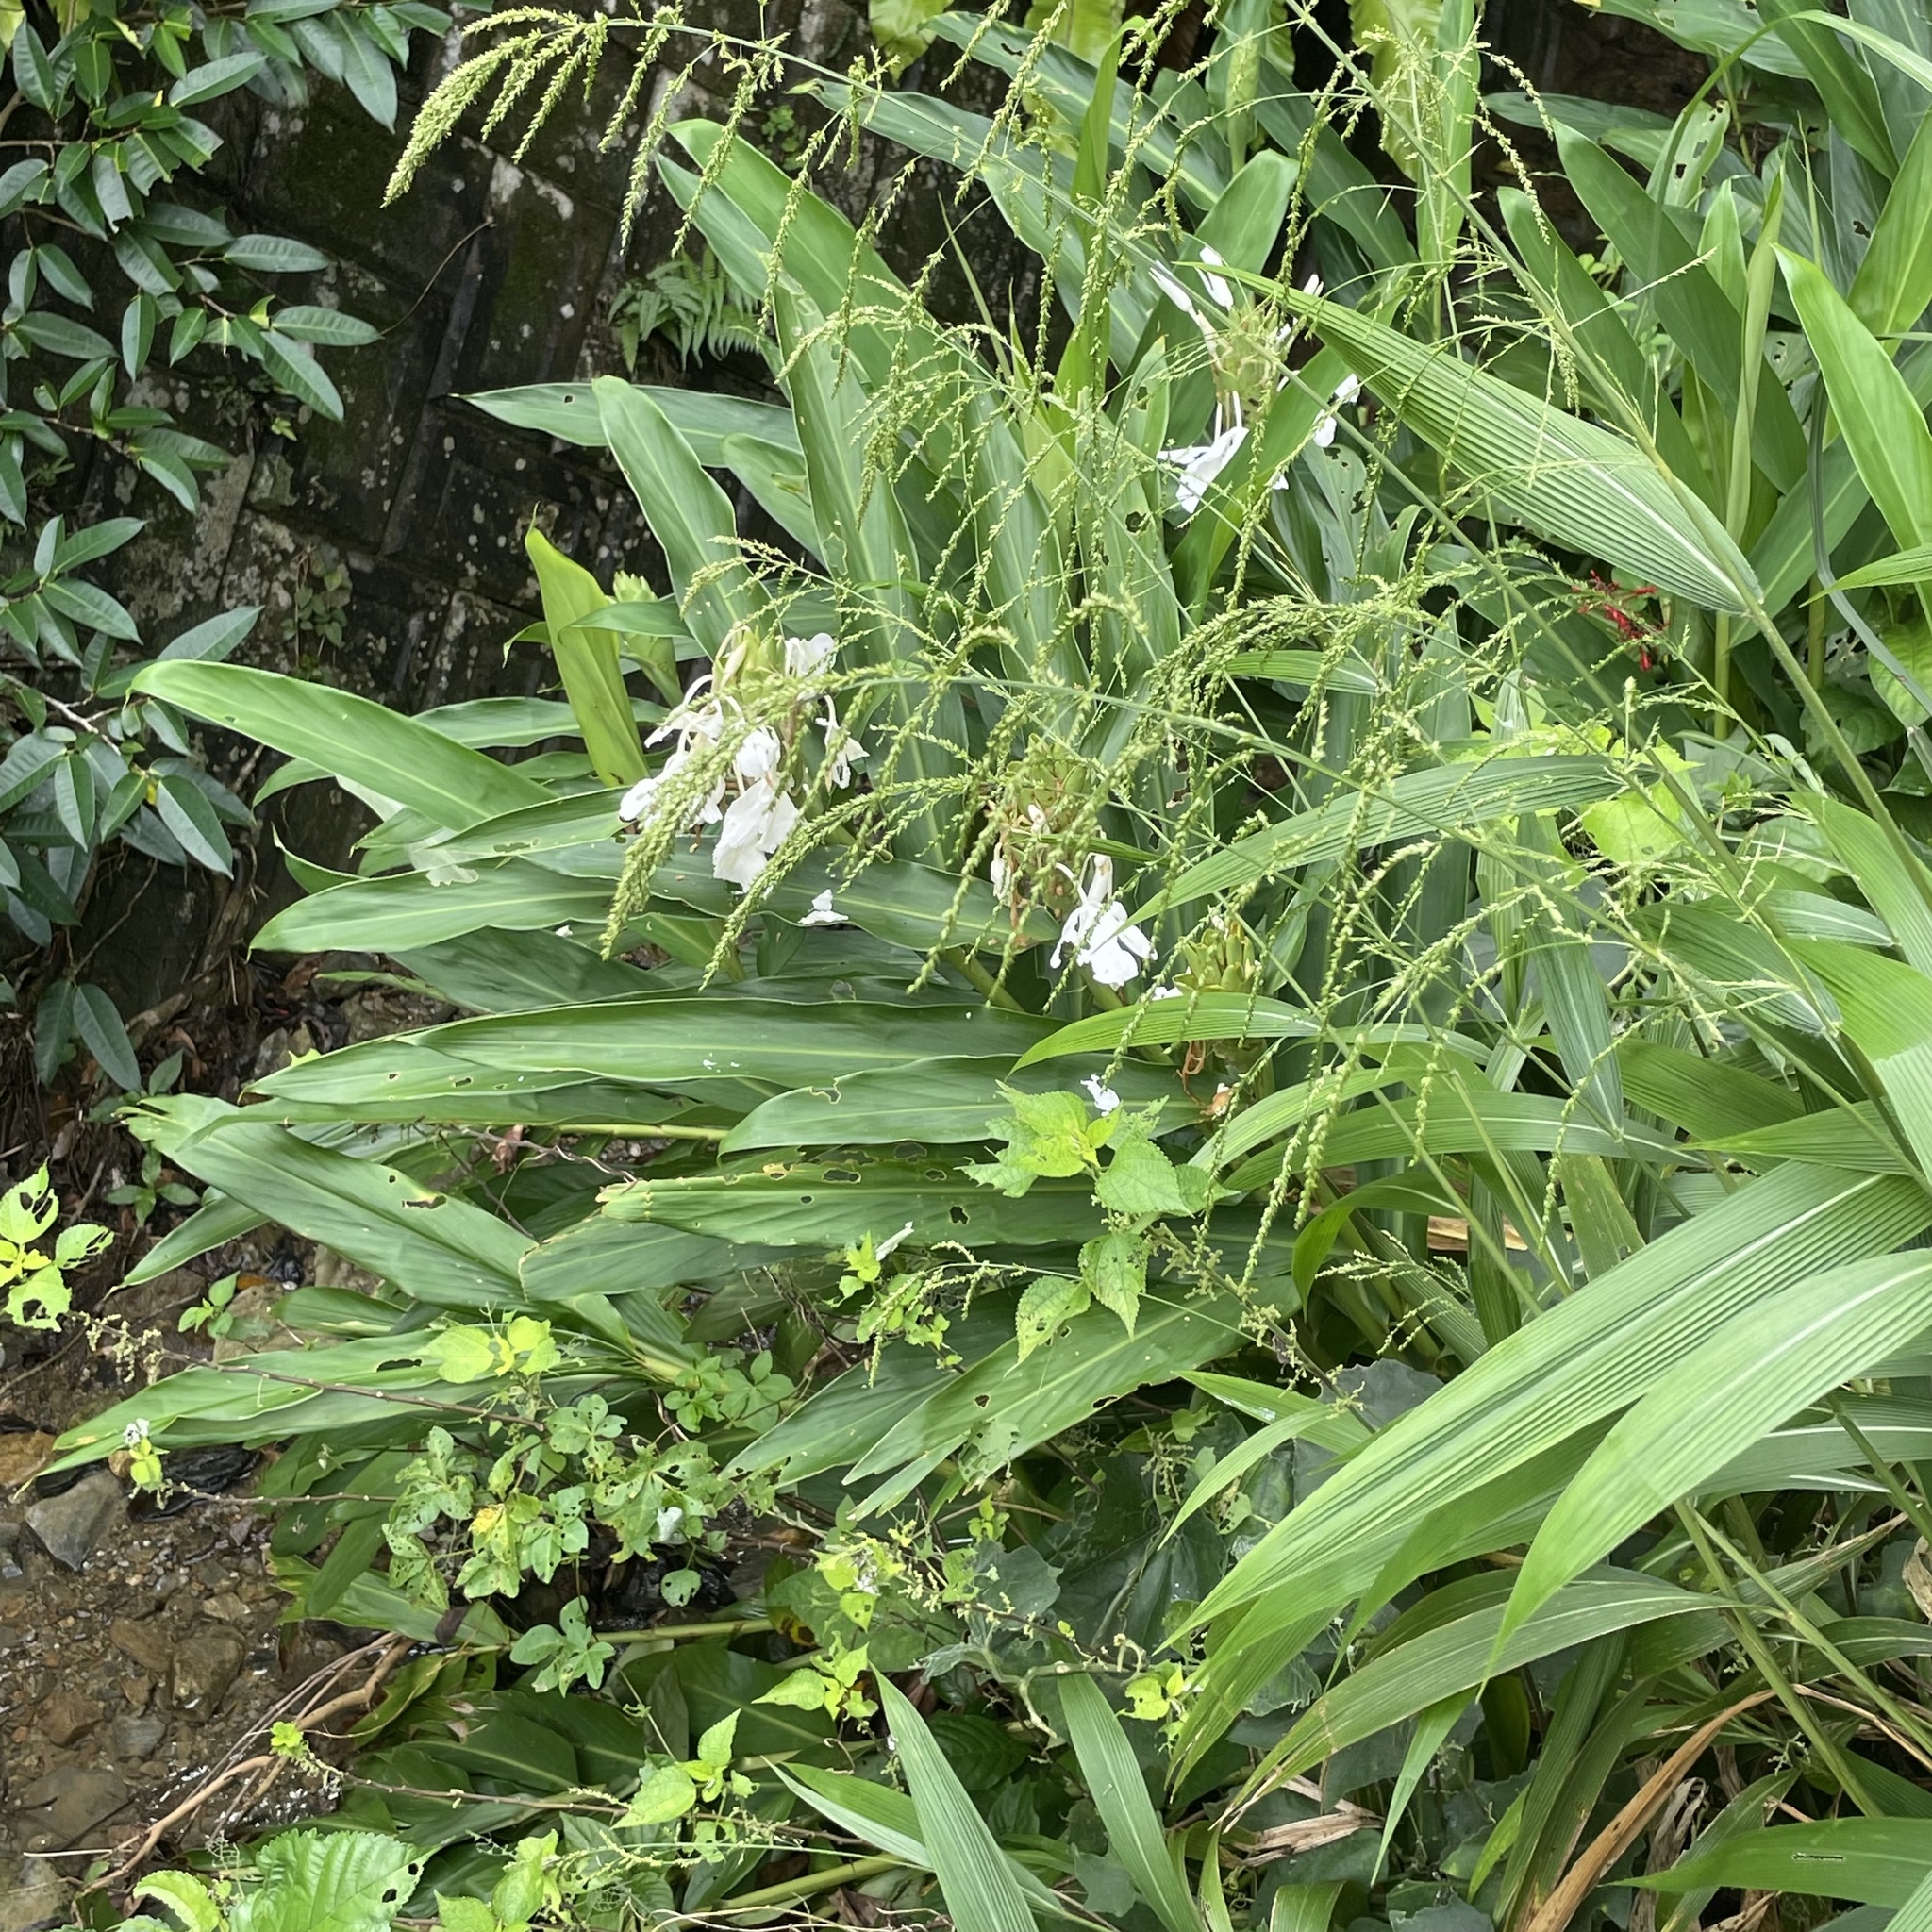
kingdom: Plantae
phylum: Tracheophyta
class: Liliopsida
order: Zingiberales
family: Zingiberaceae
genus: Hedychium
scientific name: Hedychium coronarium
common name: White garland-lily
